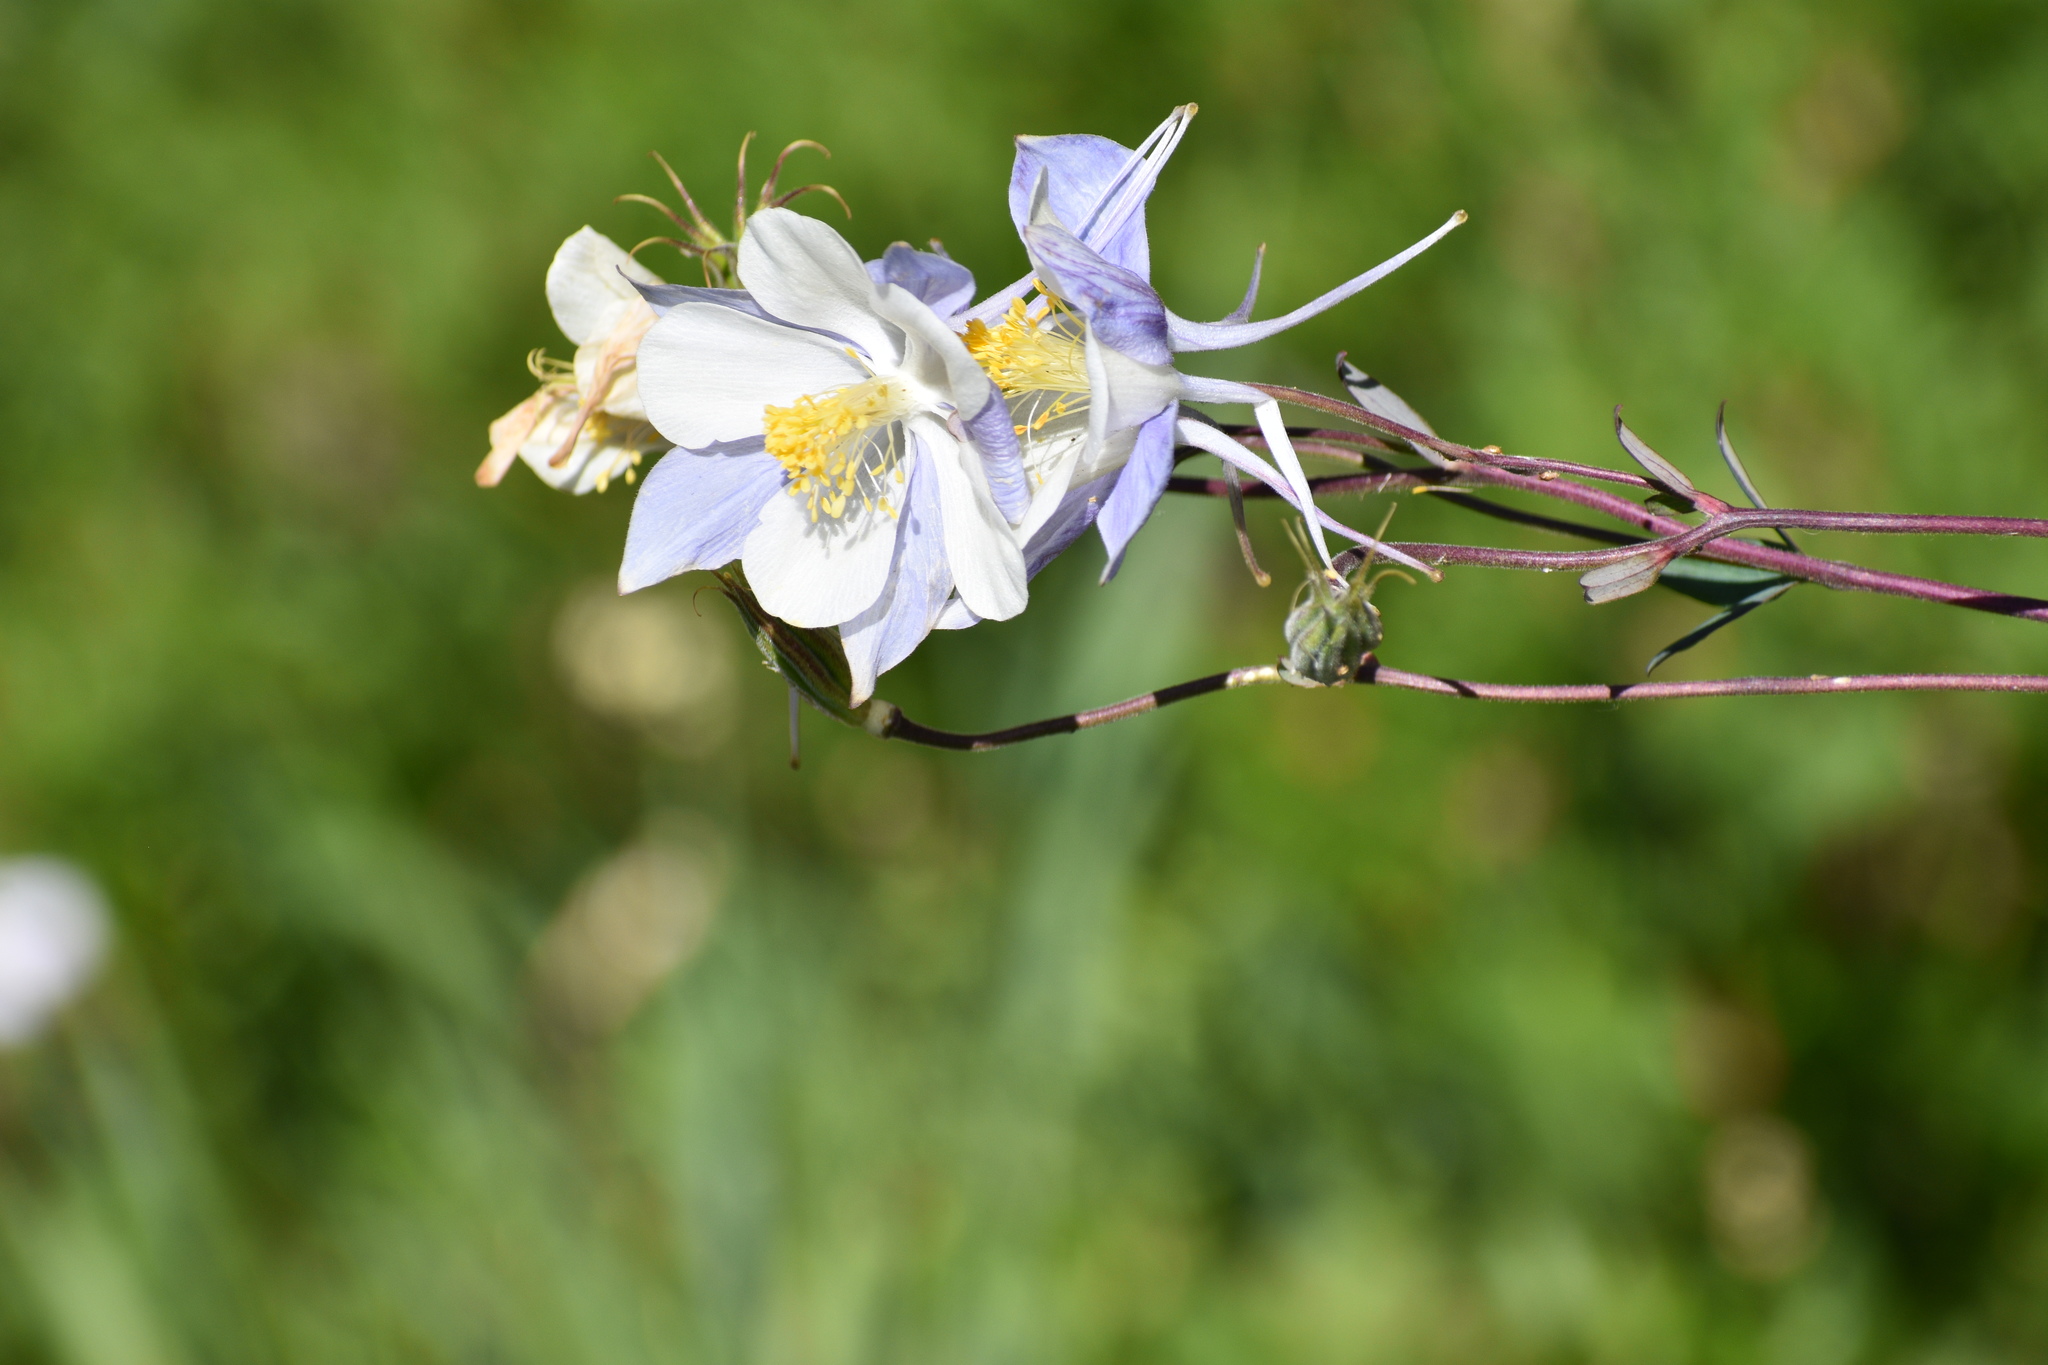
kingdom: Plantae
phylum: Tracheophyta
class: Magnoliopsida
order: Ranunculales
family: Ranunculaceae
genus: Aquilegia
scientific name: Aquilegia coerulea
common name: Rocky mountain columbine
